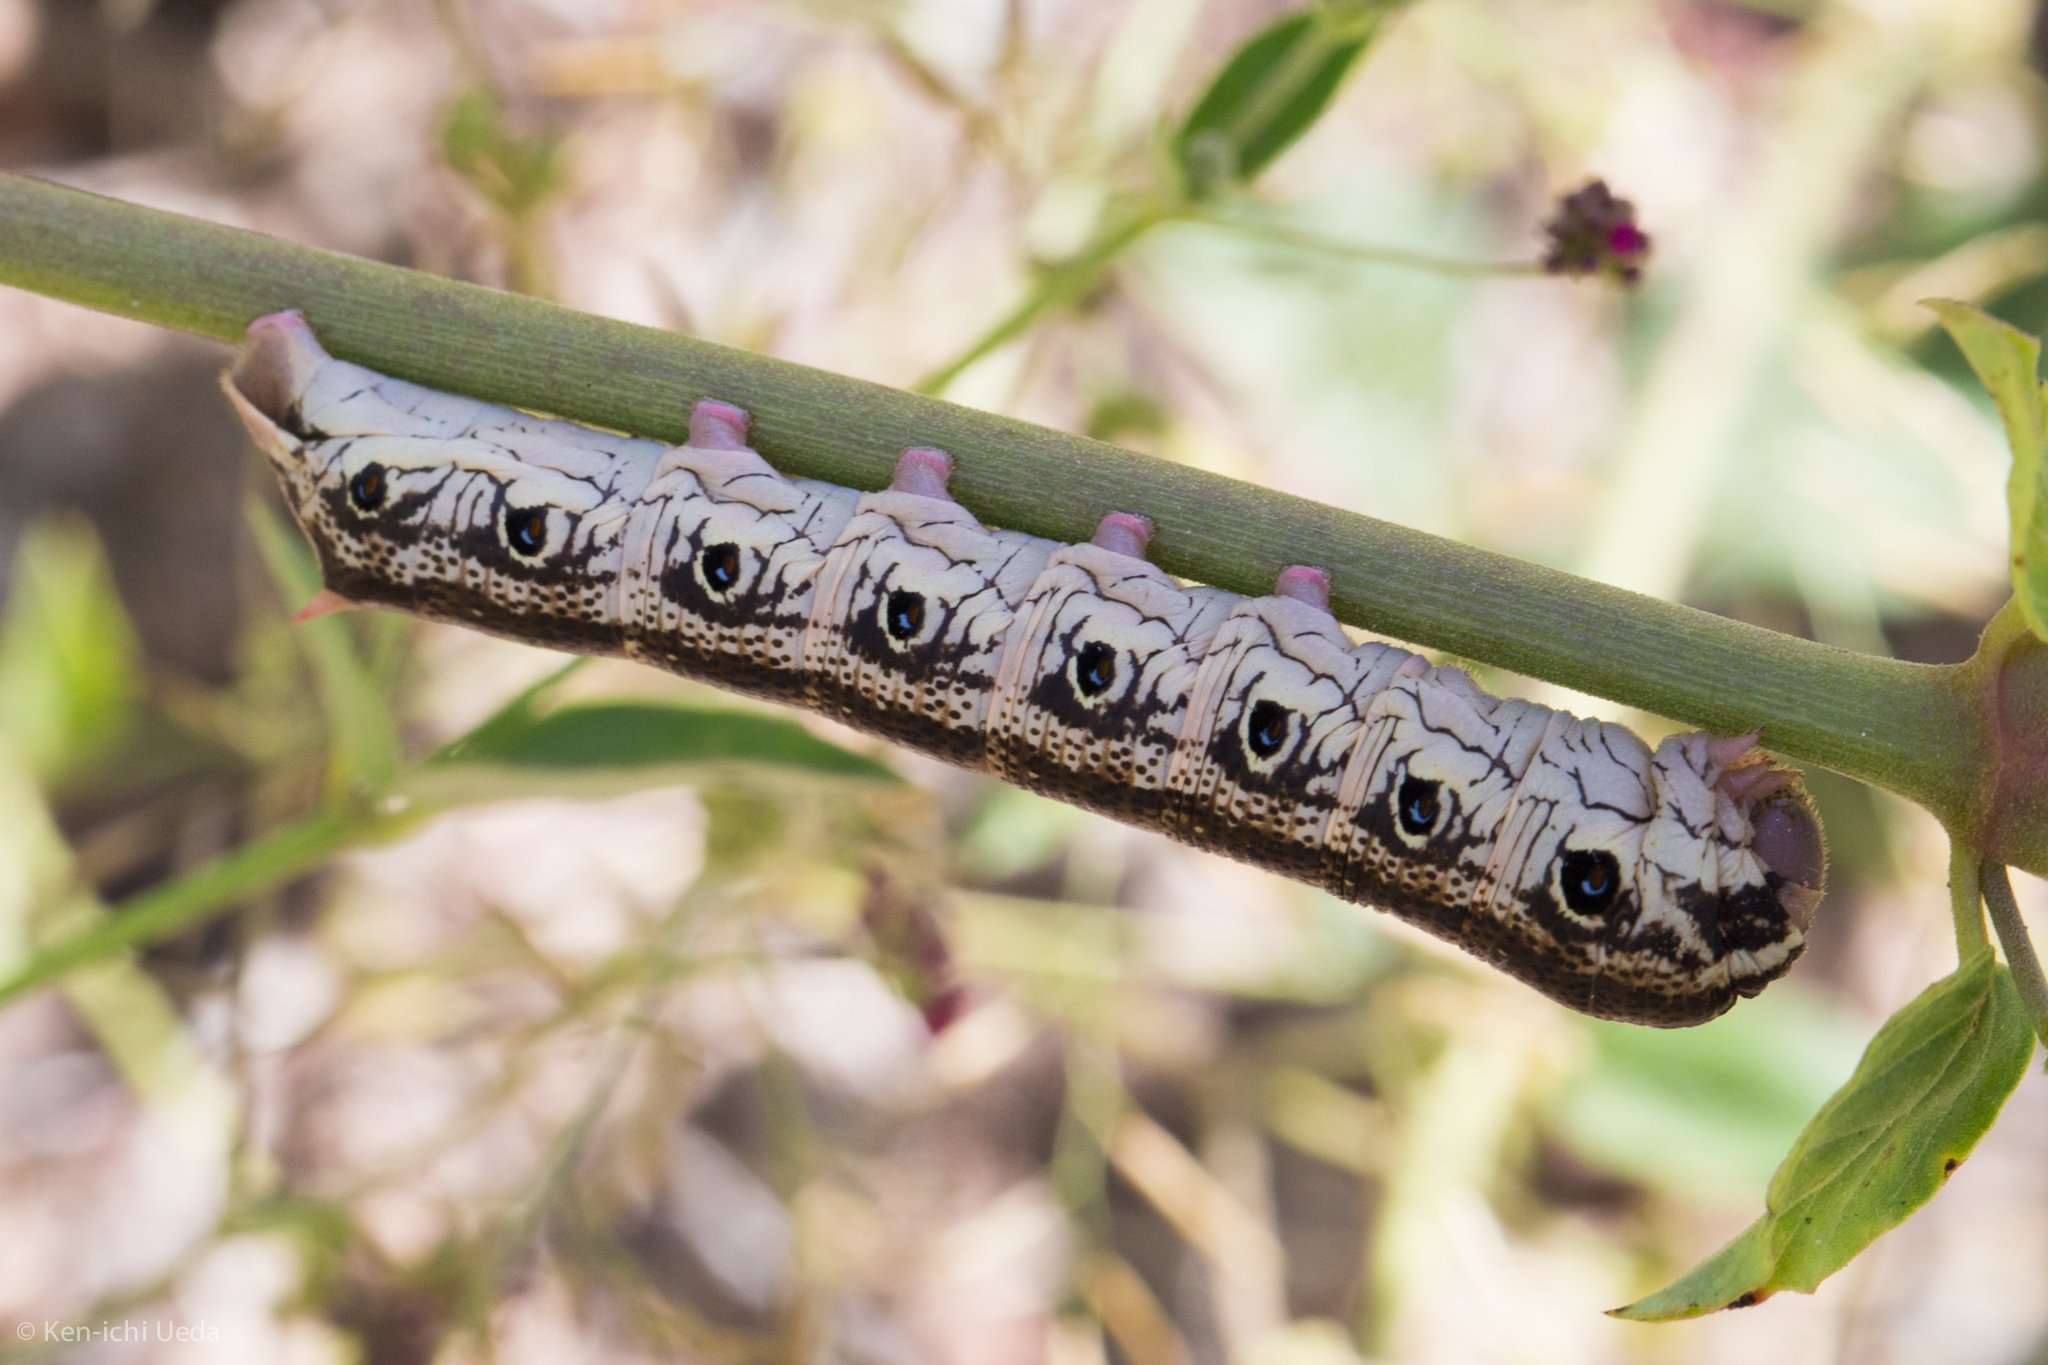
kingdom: Animalia
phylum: Arthropoda
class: Insecta
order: Lepidoptera
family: Sphingidae
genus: Proserpinus
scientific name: Proserpinus terlooii
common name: Terloo's sphinx
